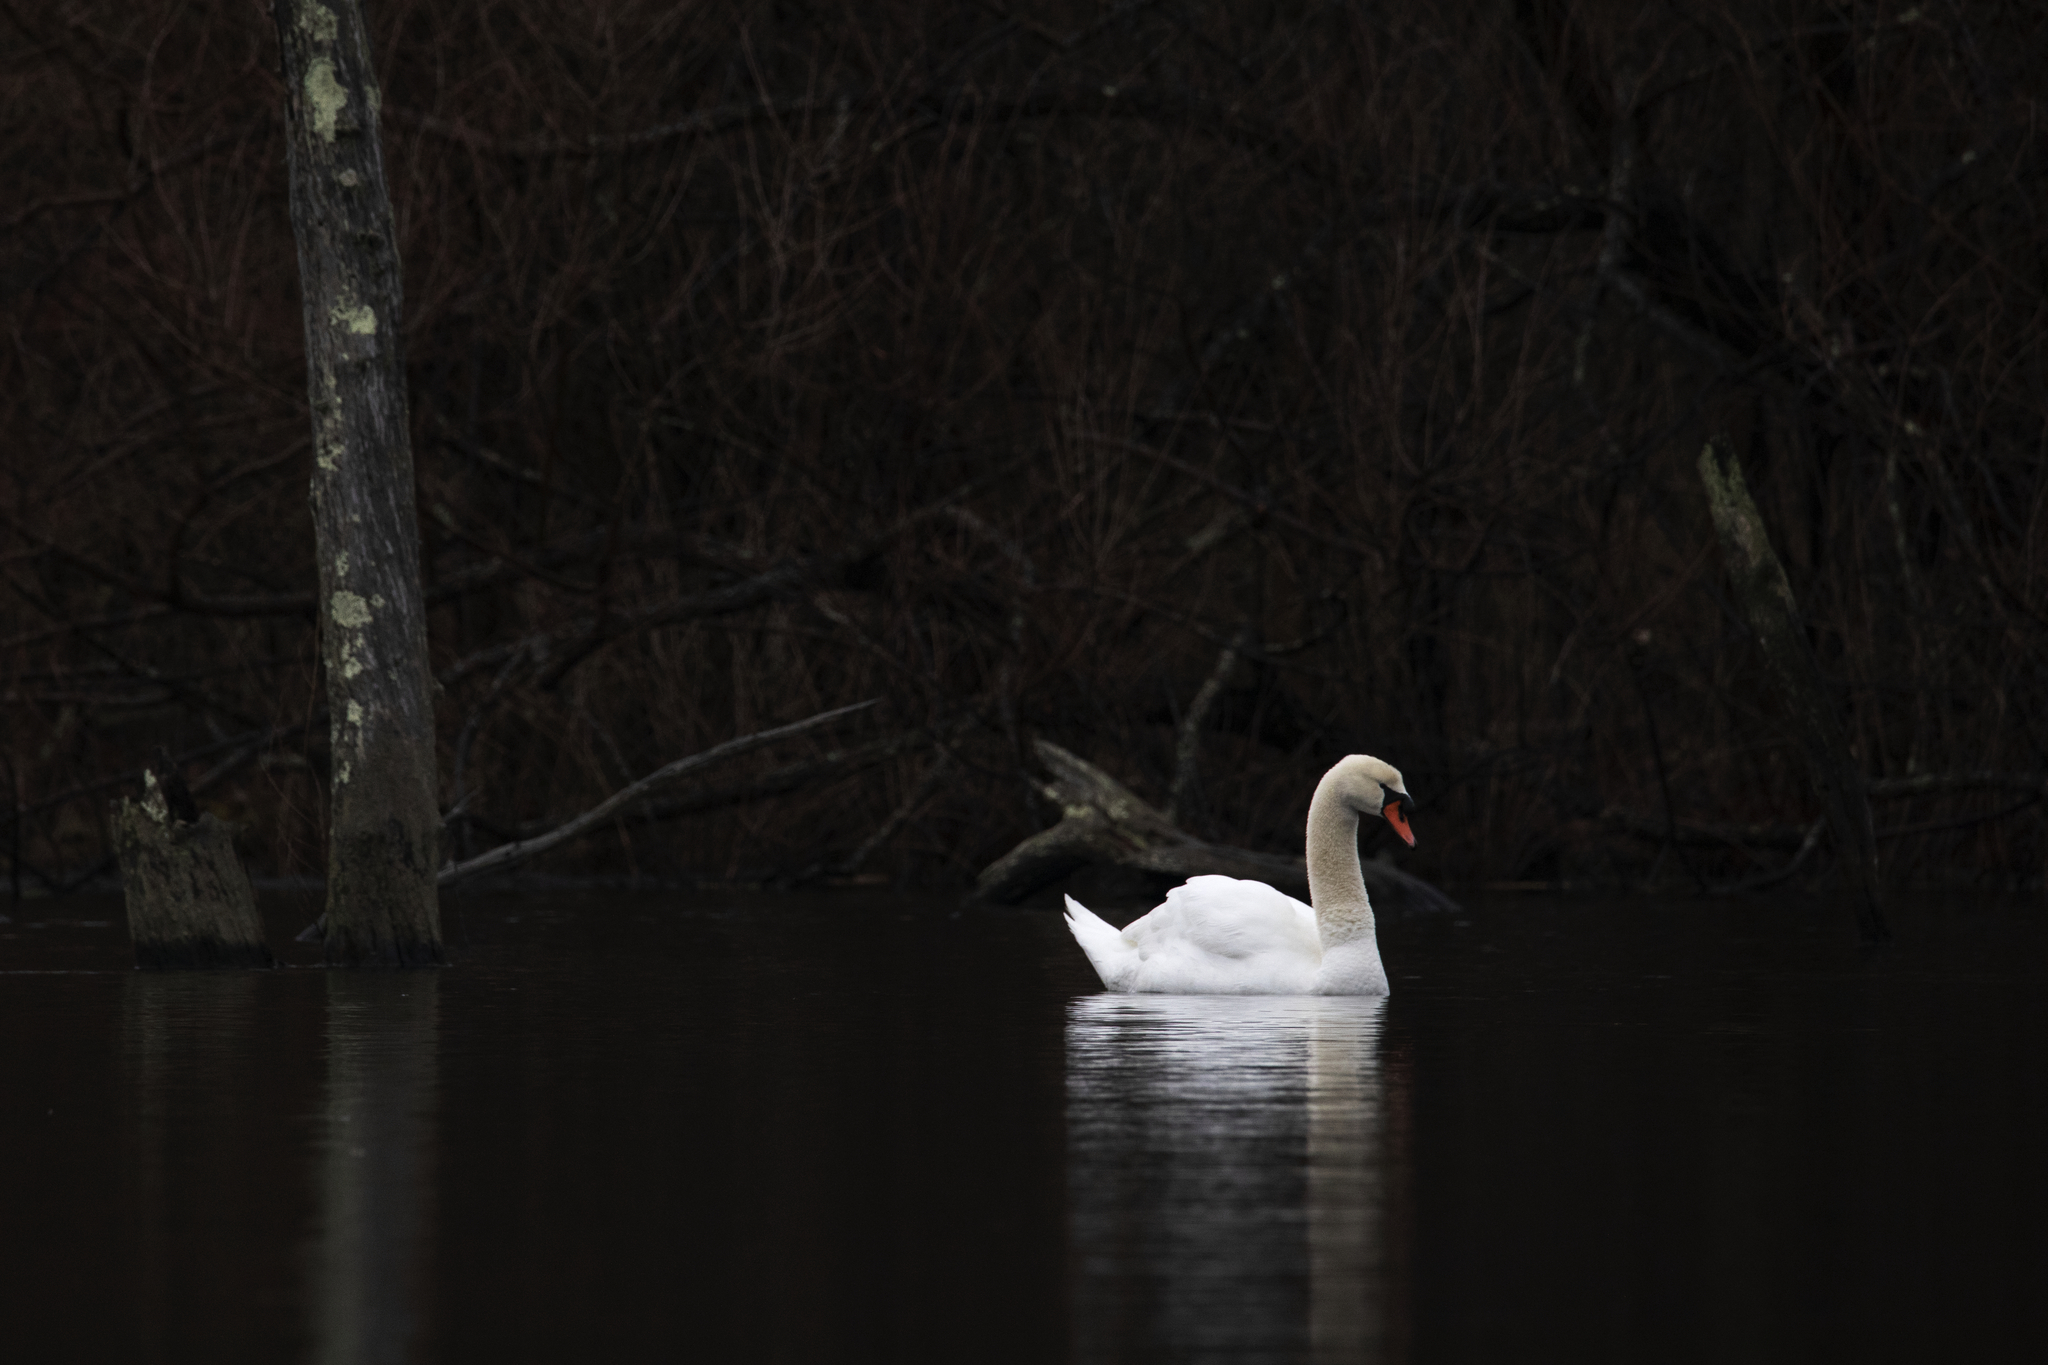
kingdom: Animalia
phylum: Chordata
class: Aves
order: Anseriformes
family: Anatidae
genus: Cygnus
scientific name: Cygnus olor
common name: Mute swan
